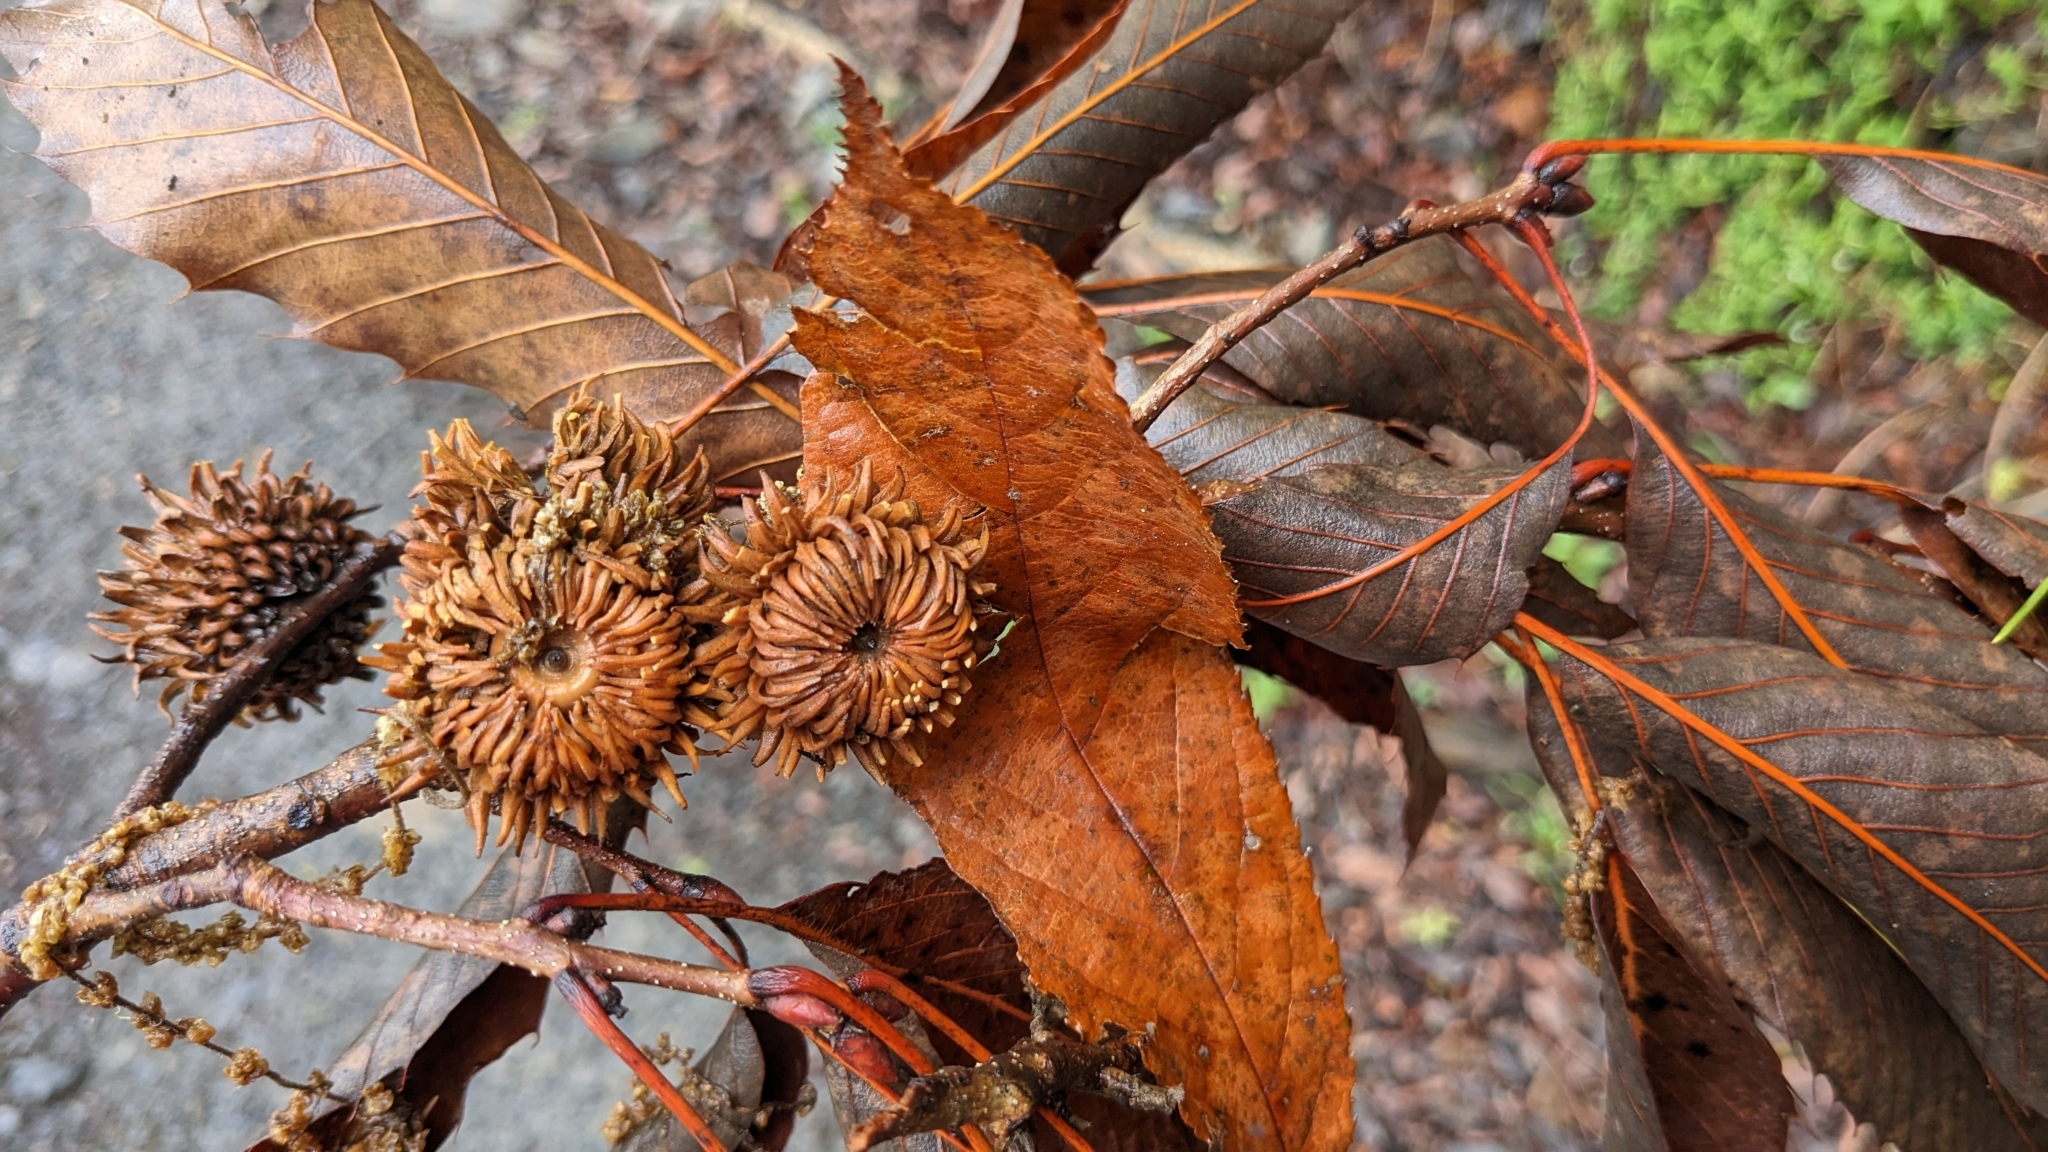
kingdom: Plantae
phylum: Tracheophyta
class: Magnoliopsida
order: Fagales
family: Fagaceae
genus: Quercus
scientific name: Quercus variabilis
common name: Chinese cork oak
